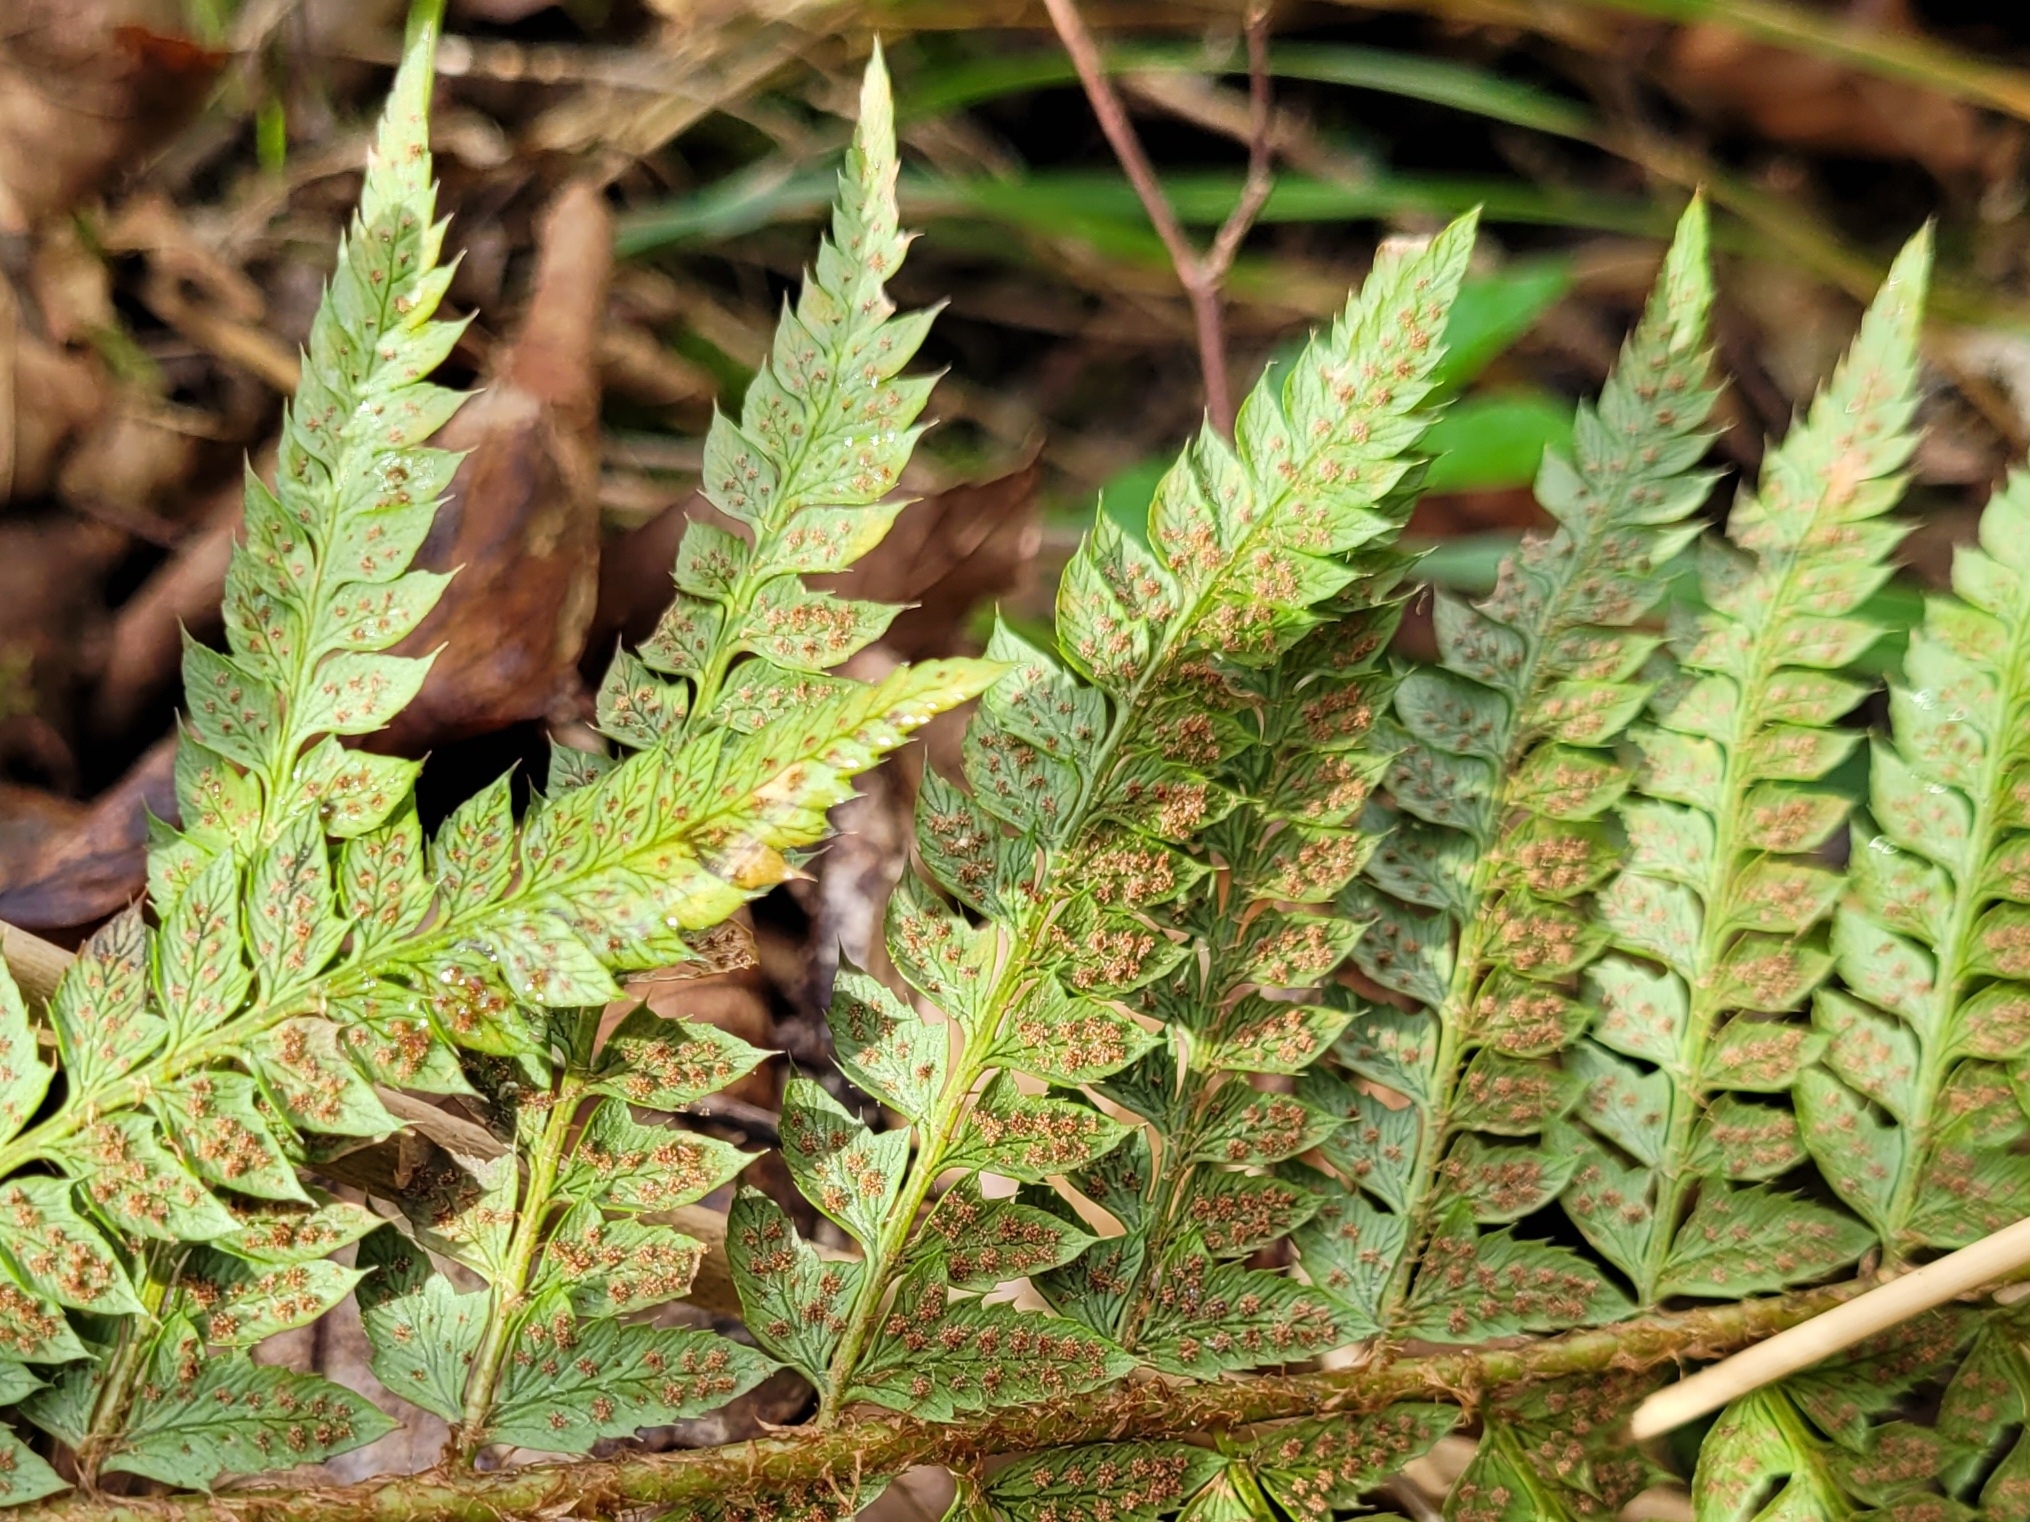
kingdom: Plantae
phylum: Tracheophyta
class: Polypodiopsida
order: Polypodiales
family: Dryopteridaceae
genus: Polystichum
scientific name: Polystichum aculeatum
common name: Hard shield-fern
